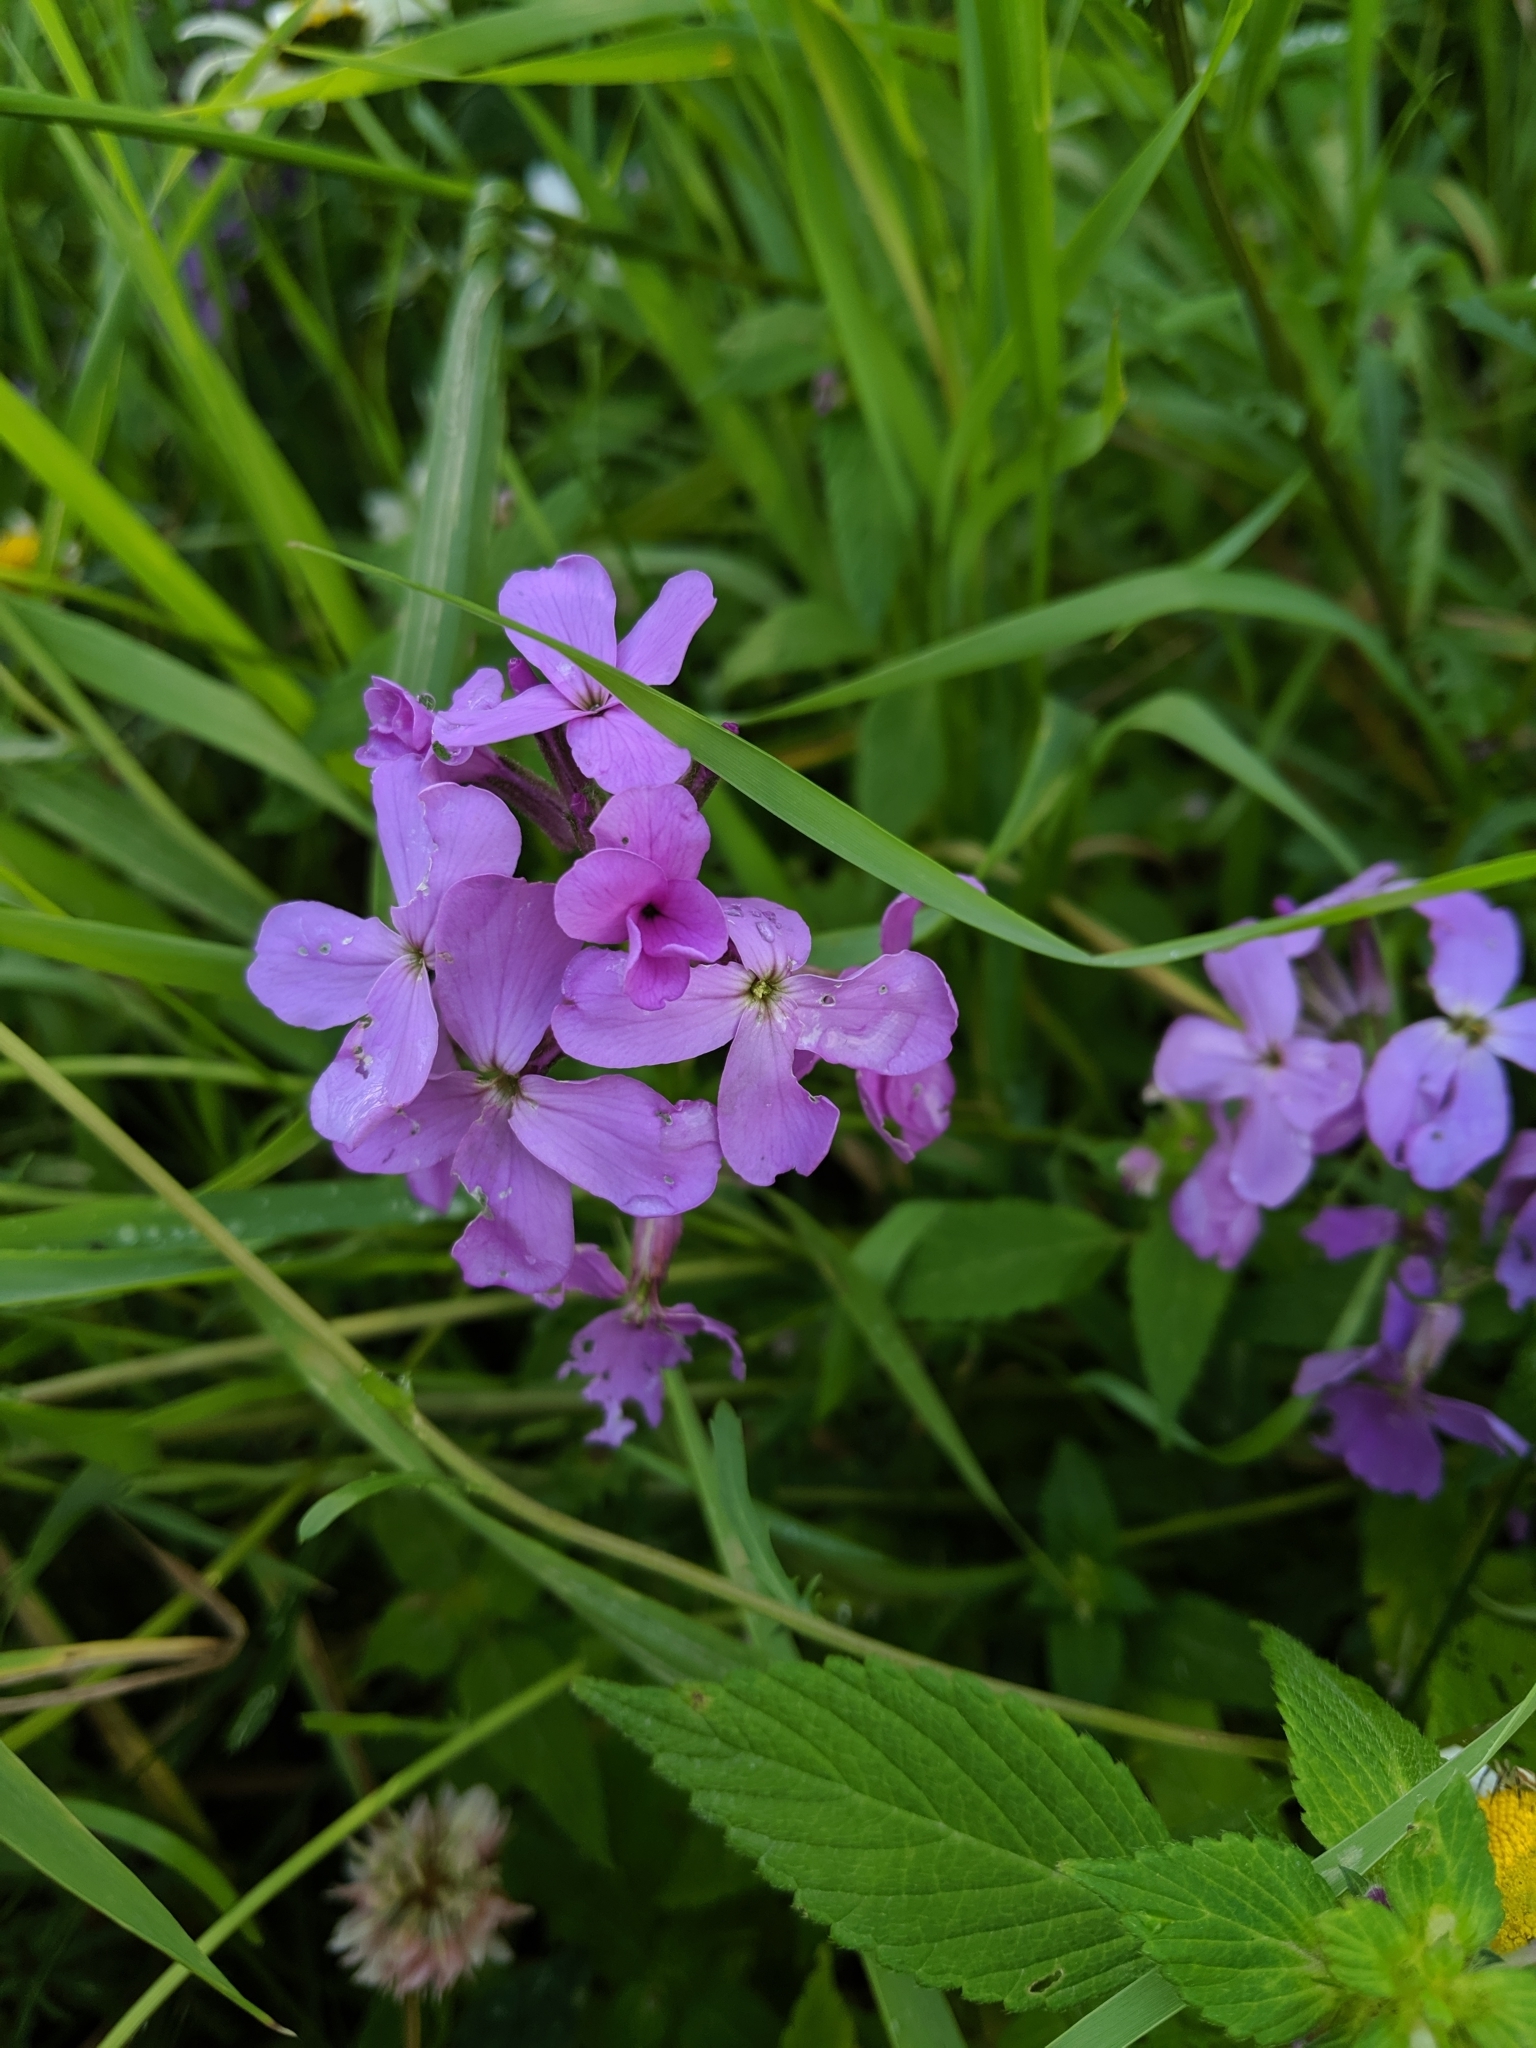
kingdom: Plantae
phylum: Tracheophyta
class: Magnoliopsida
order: Brassicales
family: Brassicaceae
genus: Hesperis
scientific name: Hesperis matronalis
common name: Dame's-violet
